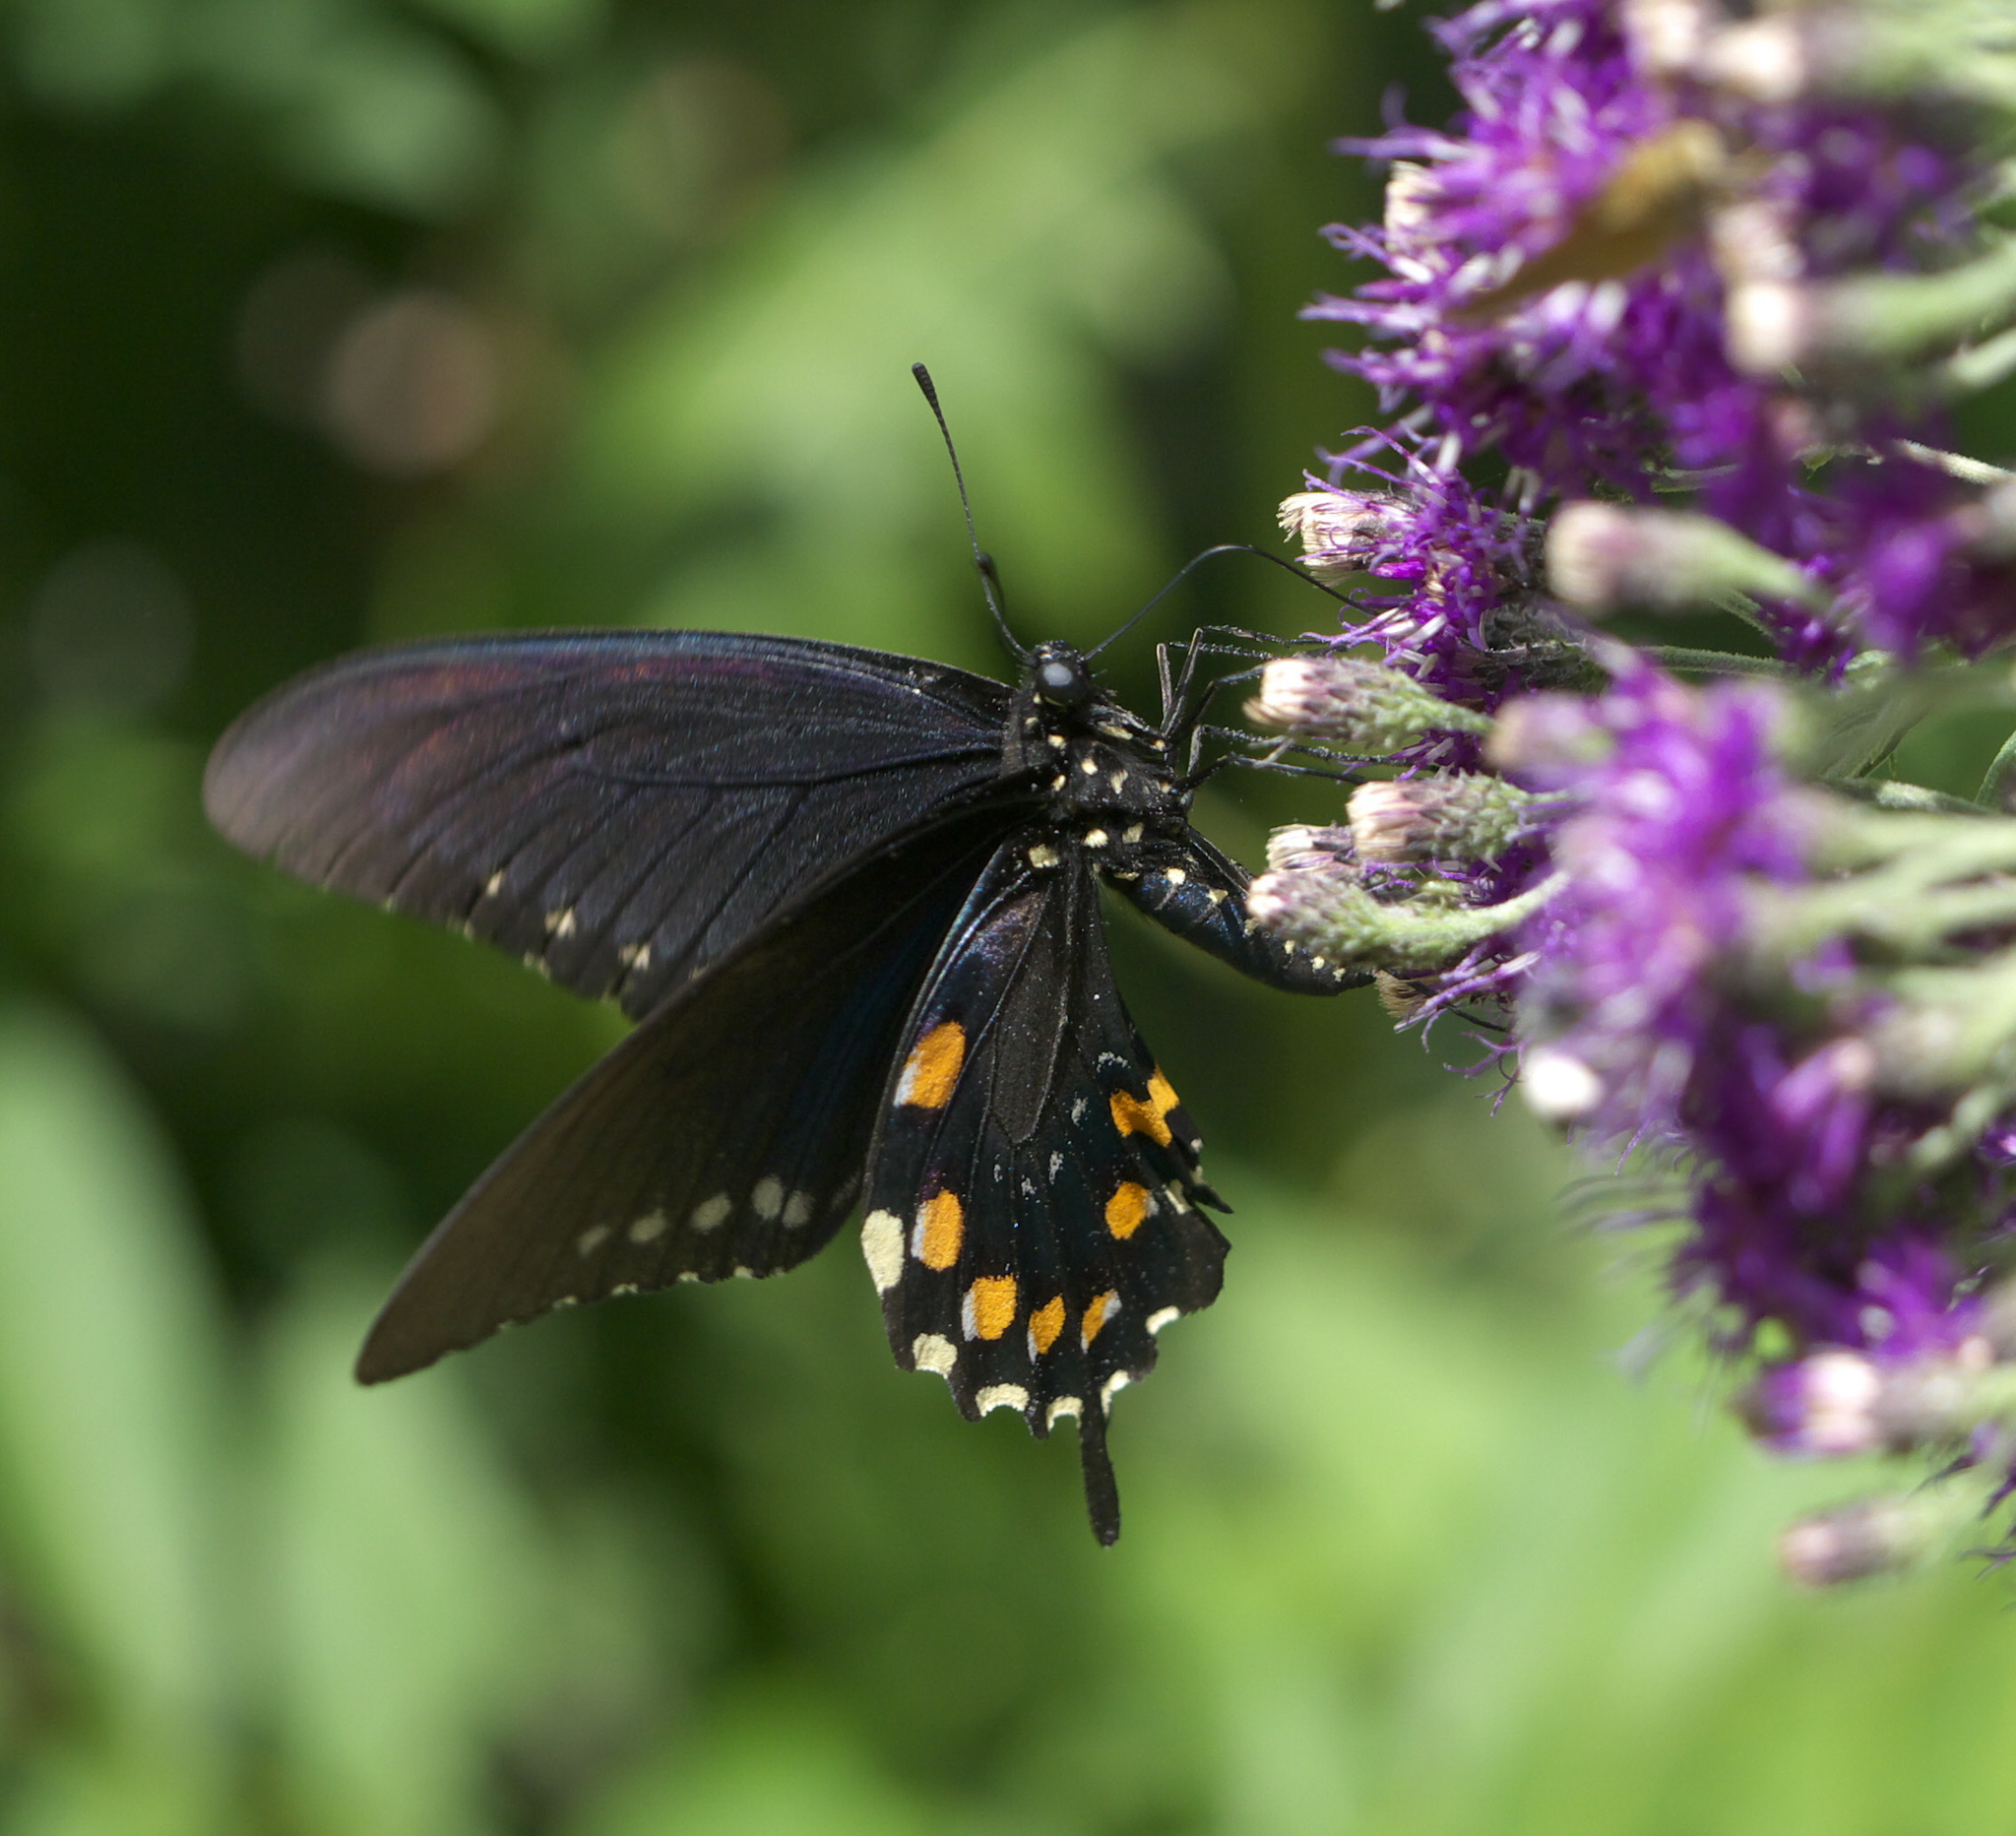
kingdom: Animalia
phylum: Arthropoda
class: Insecta
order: Lepidoptera
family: Papilionidae
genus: Battus
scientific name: Battus philenor
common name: Pipevine swallowtail
